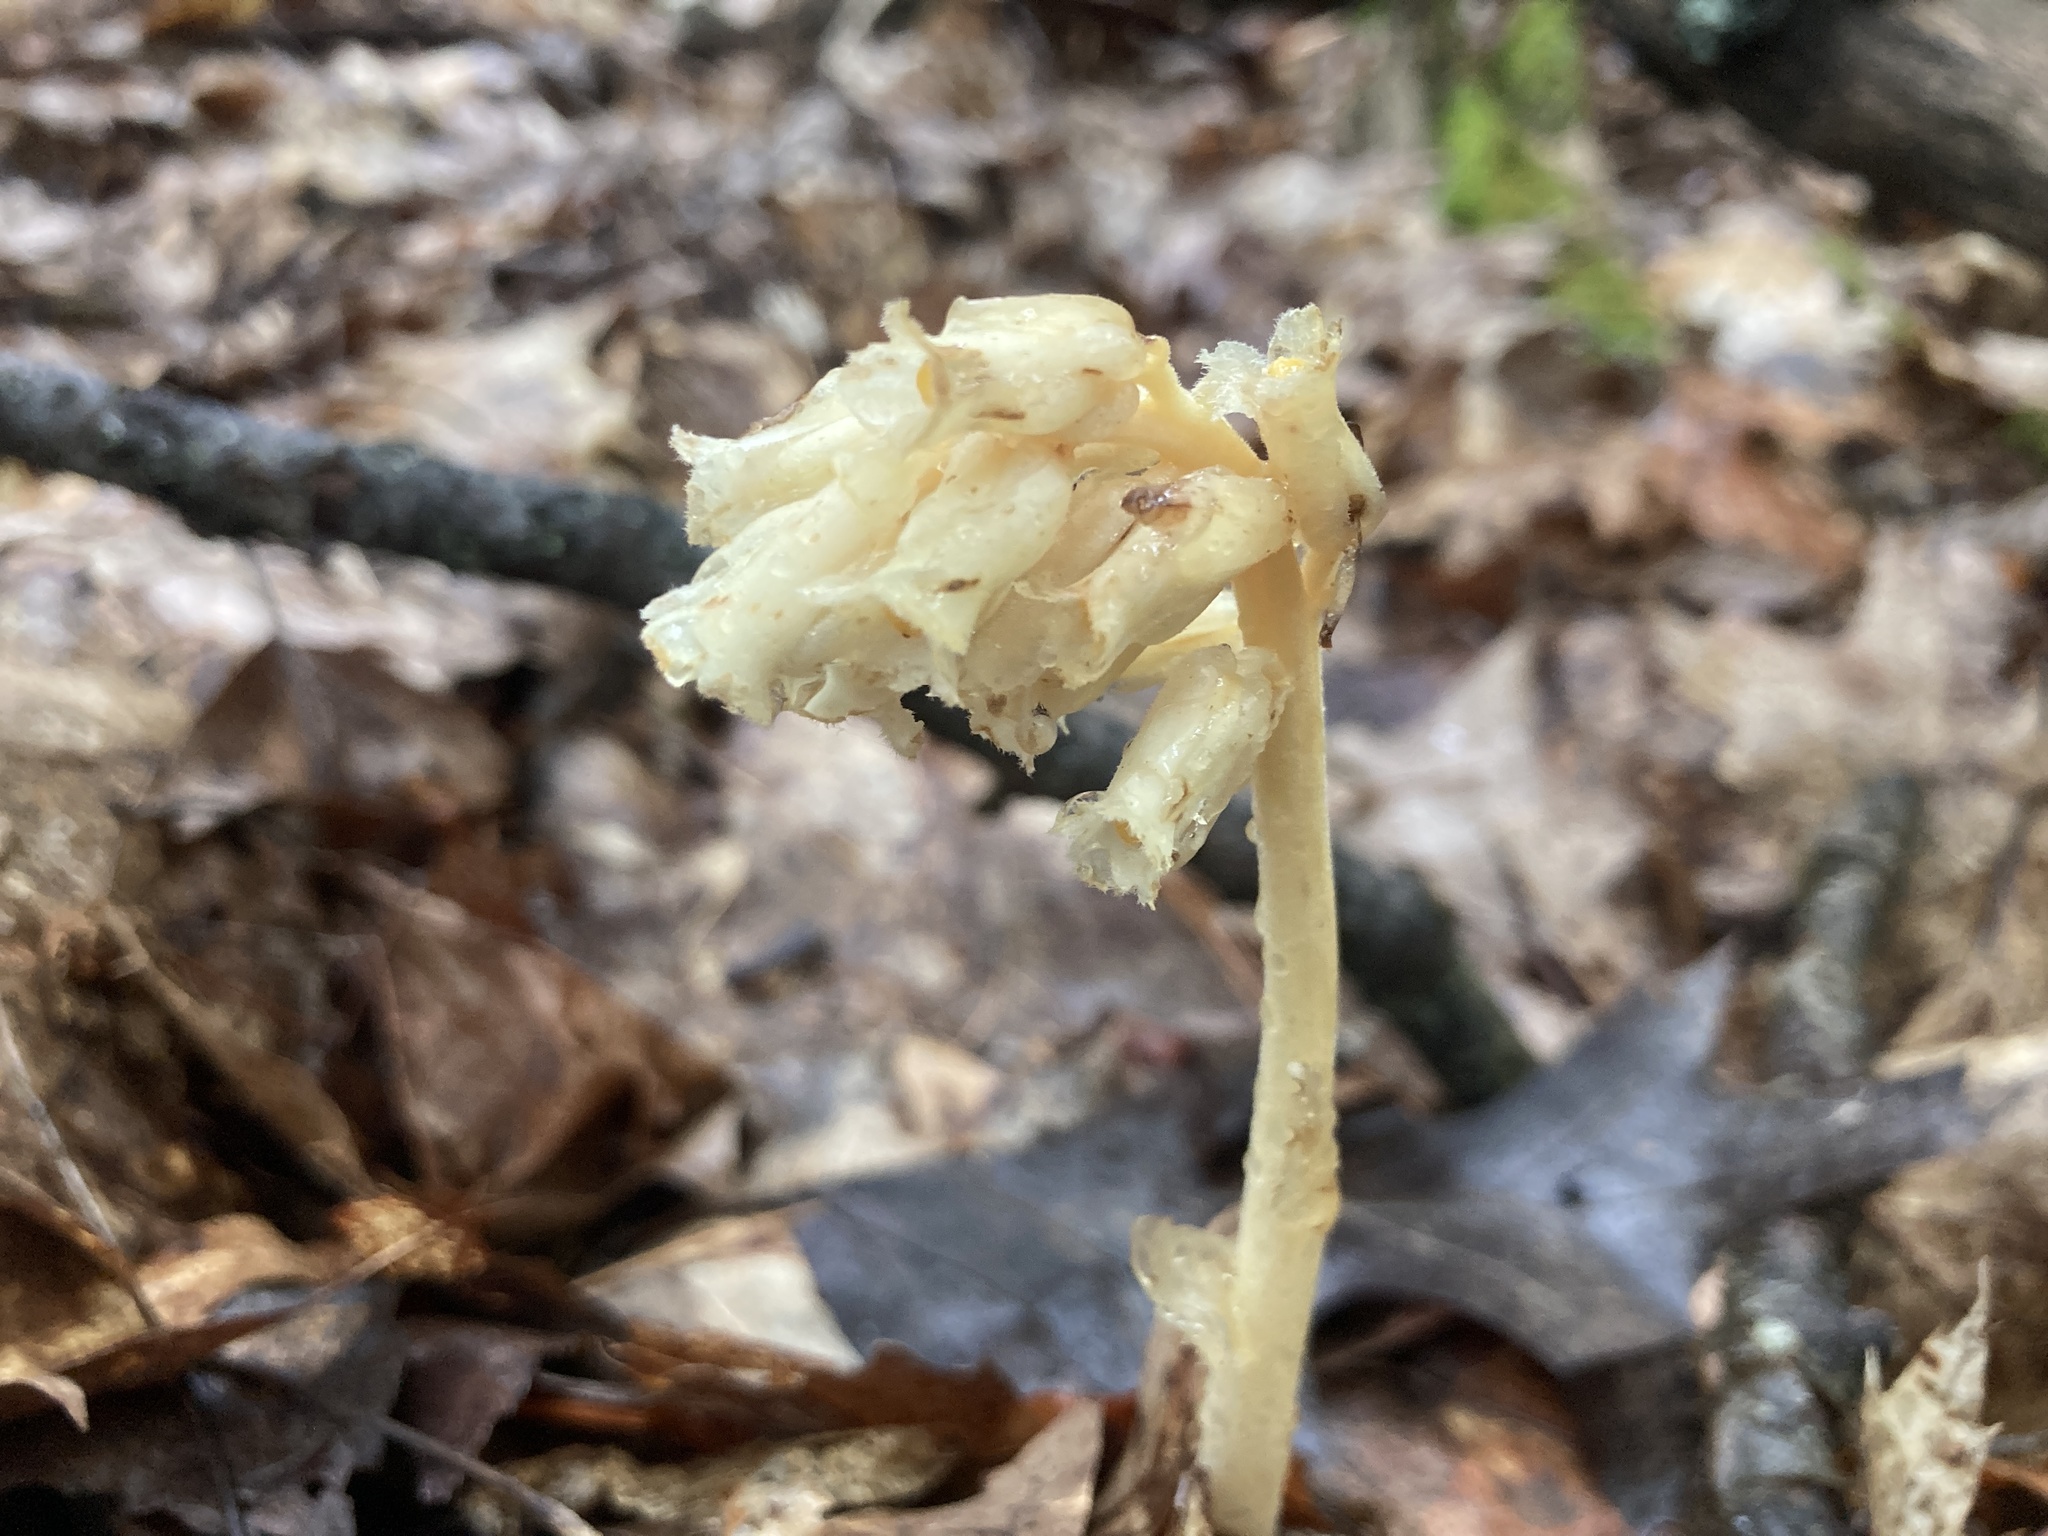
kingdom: Plantae
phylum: Tracheophyta
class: Magnoliopsida
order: Ericales
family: Ericaceae
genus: Hypopitys
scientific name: Hypopitys monotropa
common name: Yellow bird's-nest
